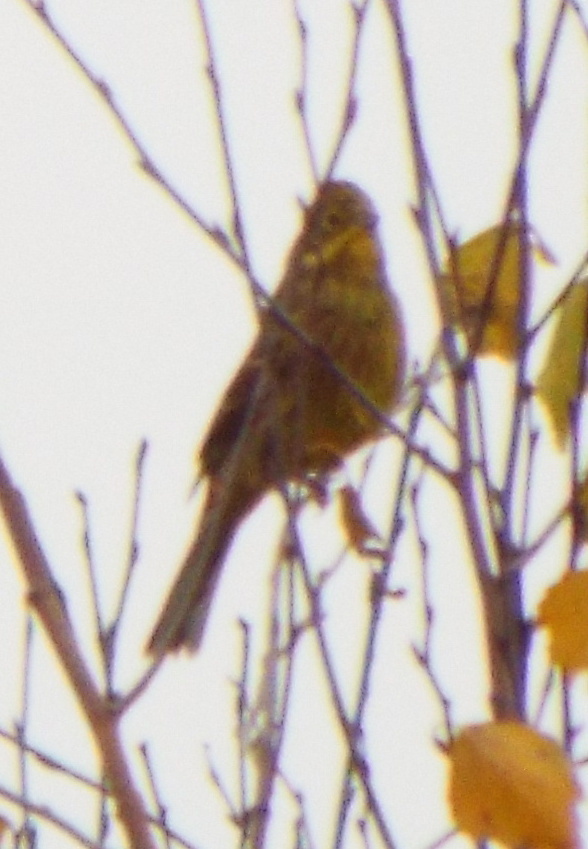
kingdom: Animalia
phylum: Chordata
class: Aves
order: Passeriformes
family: Emberizidae
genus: Emberiza
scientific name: Emberiza citrinella
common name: Yellowhammer
